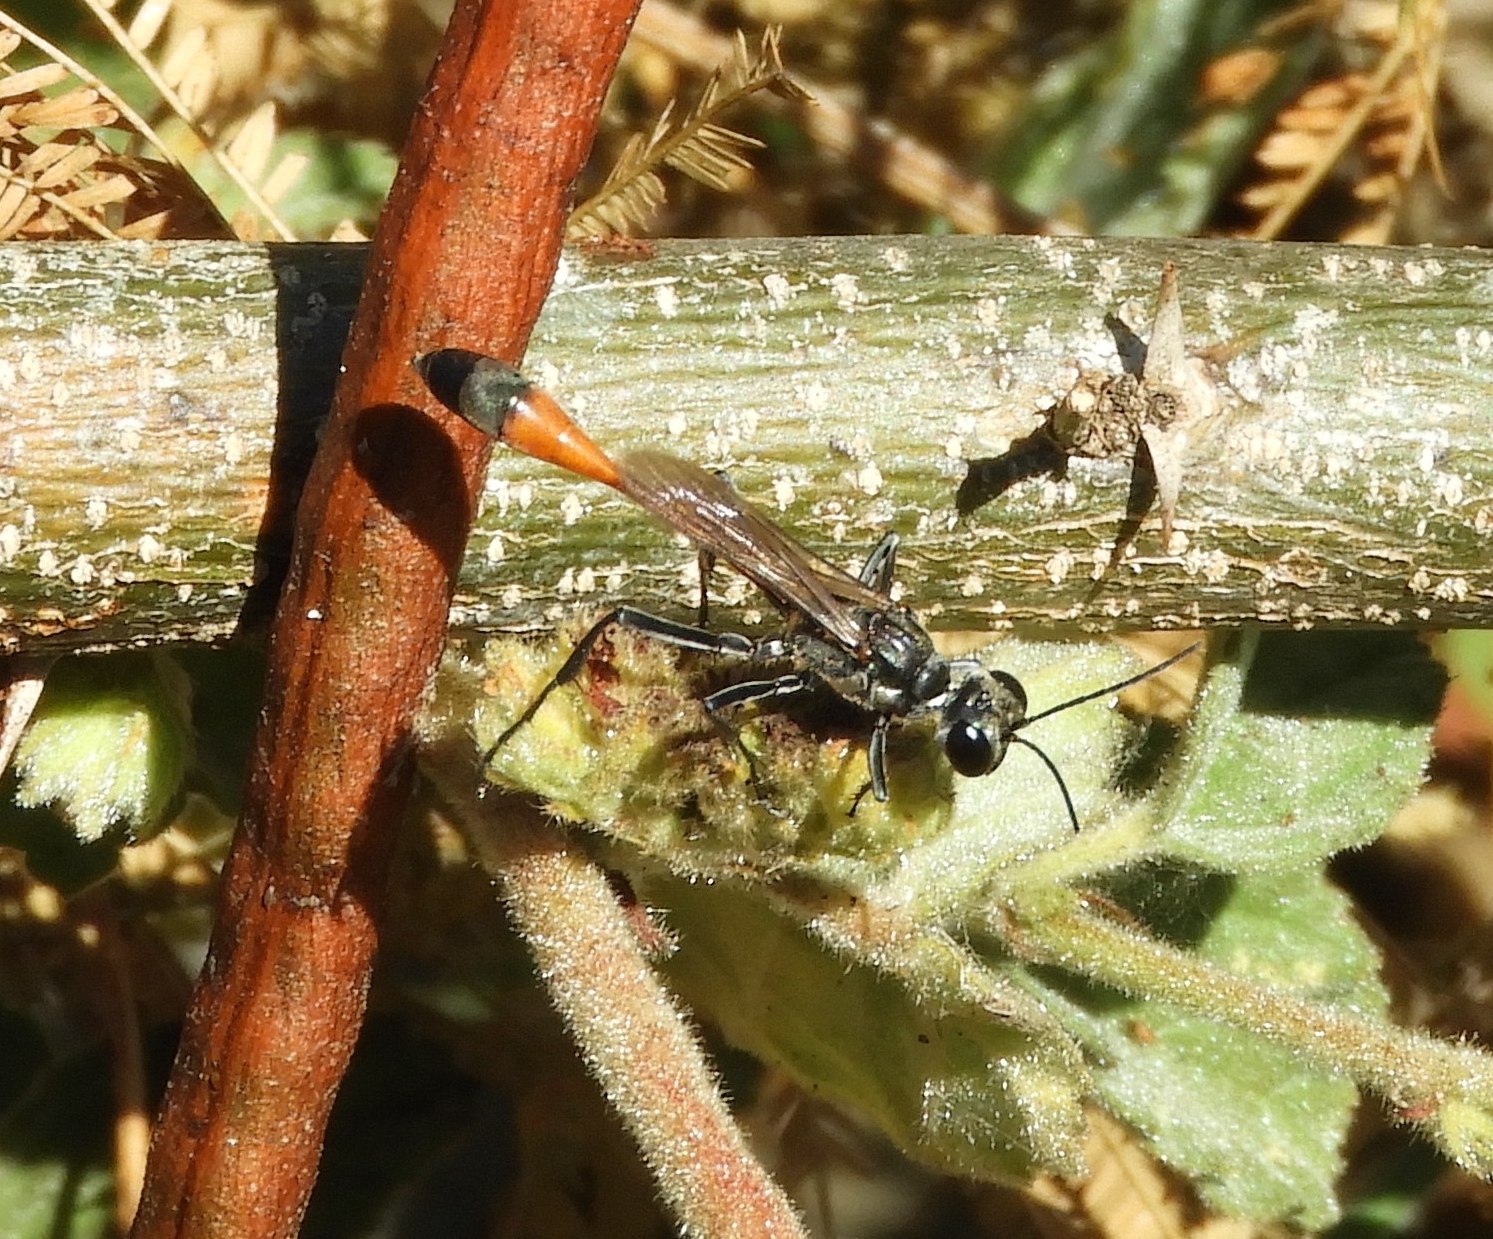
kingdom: Animalia
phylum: Arthropoda
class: Insecta
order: Hymenoptera
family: Sphecidae
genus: Ammophila
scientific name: Ammophila
